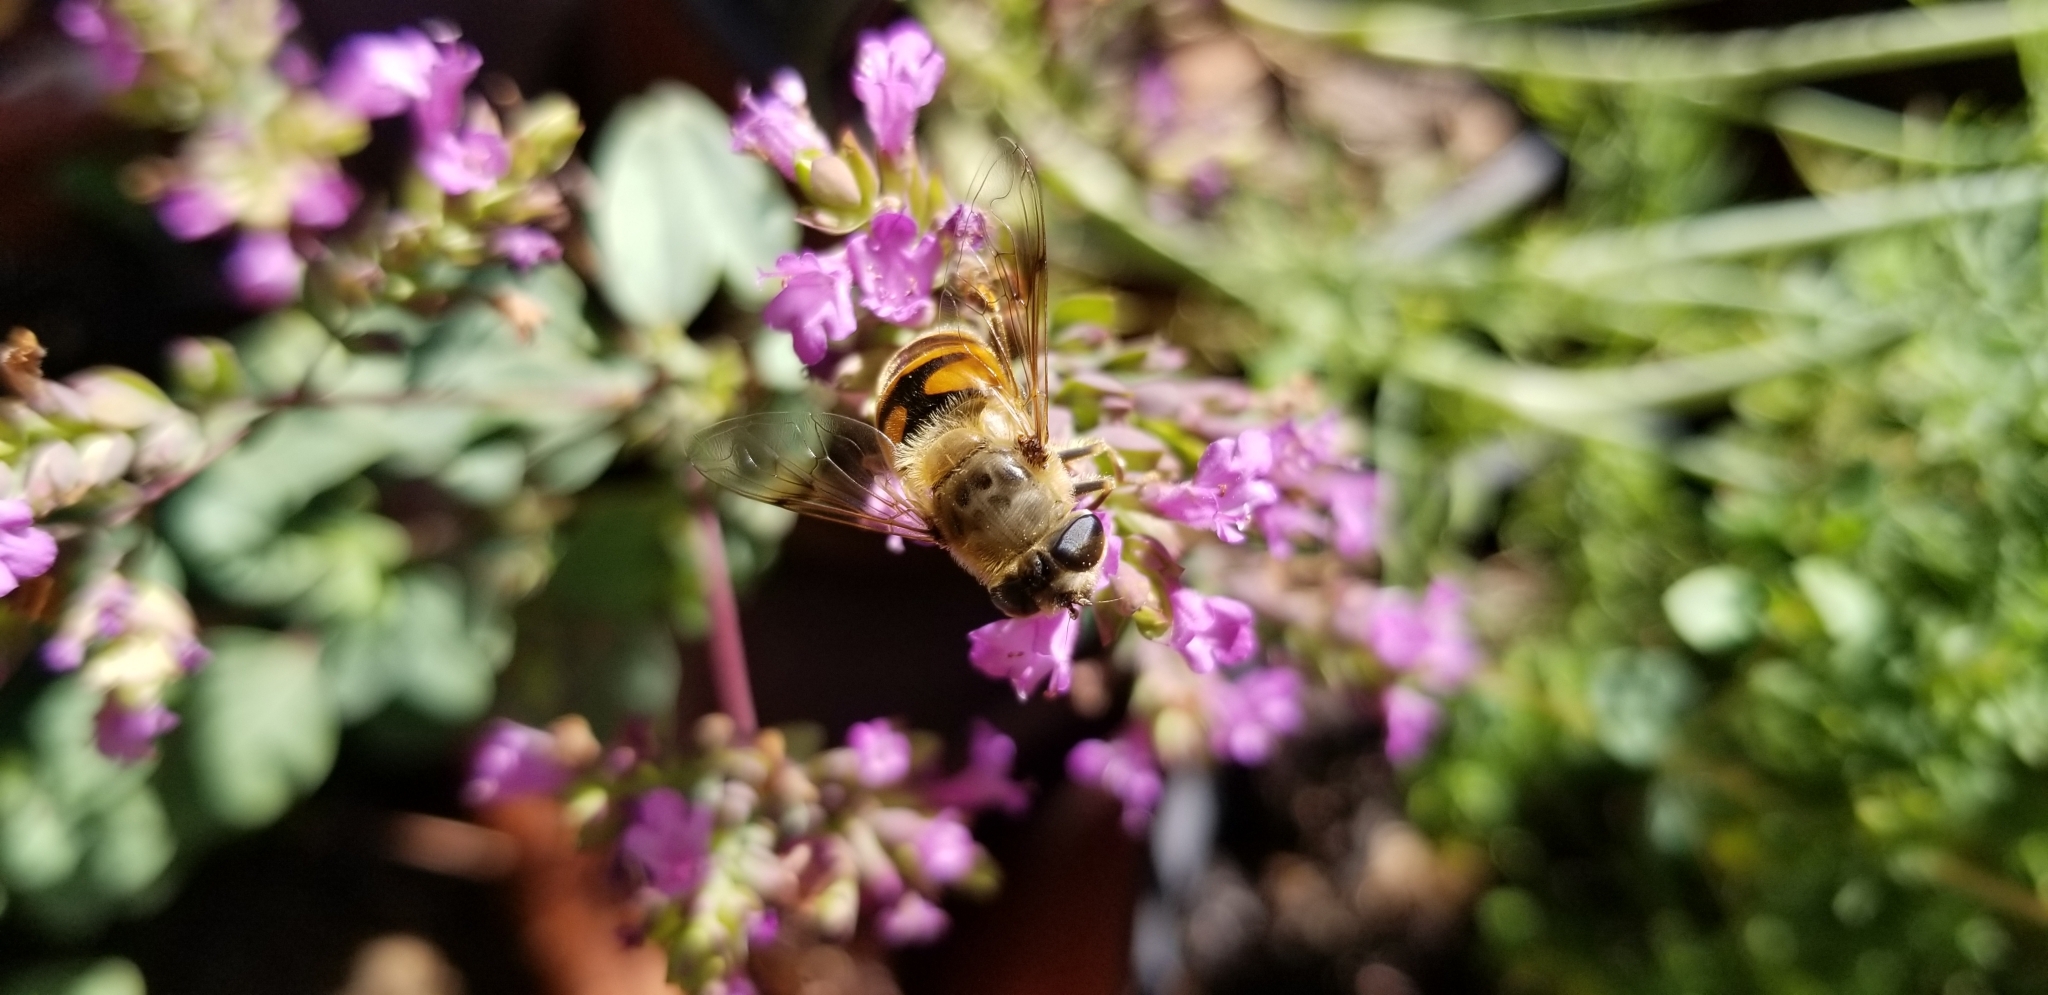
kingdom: Animalia
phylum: Arthropoda
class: Insecta
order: Diptera
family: Syrphidae
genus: Eristalis
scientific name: Eristalis tenax
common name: Drone fly
